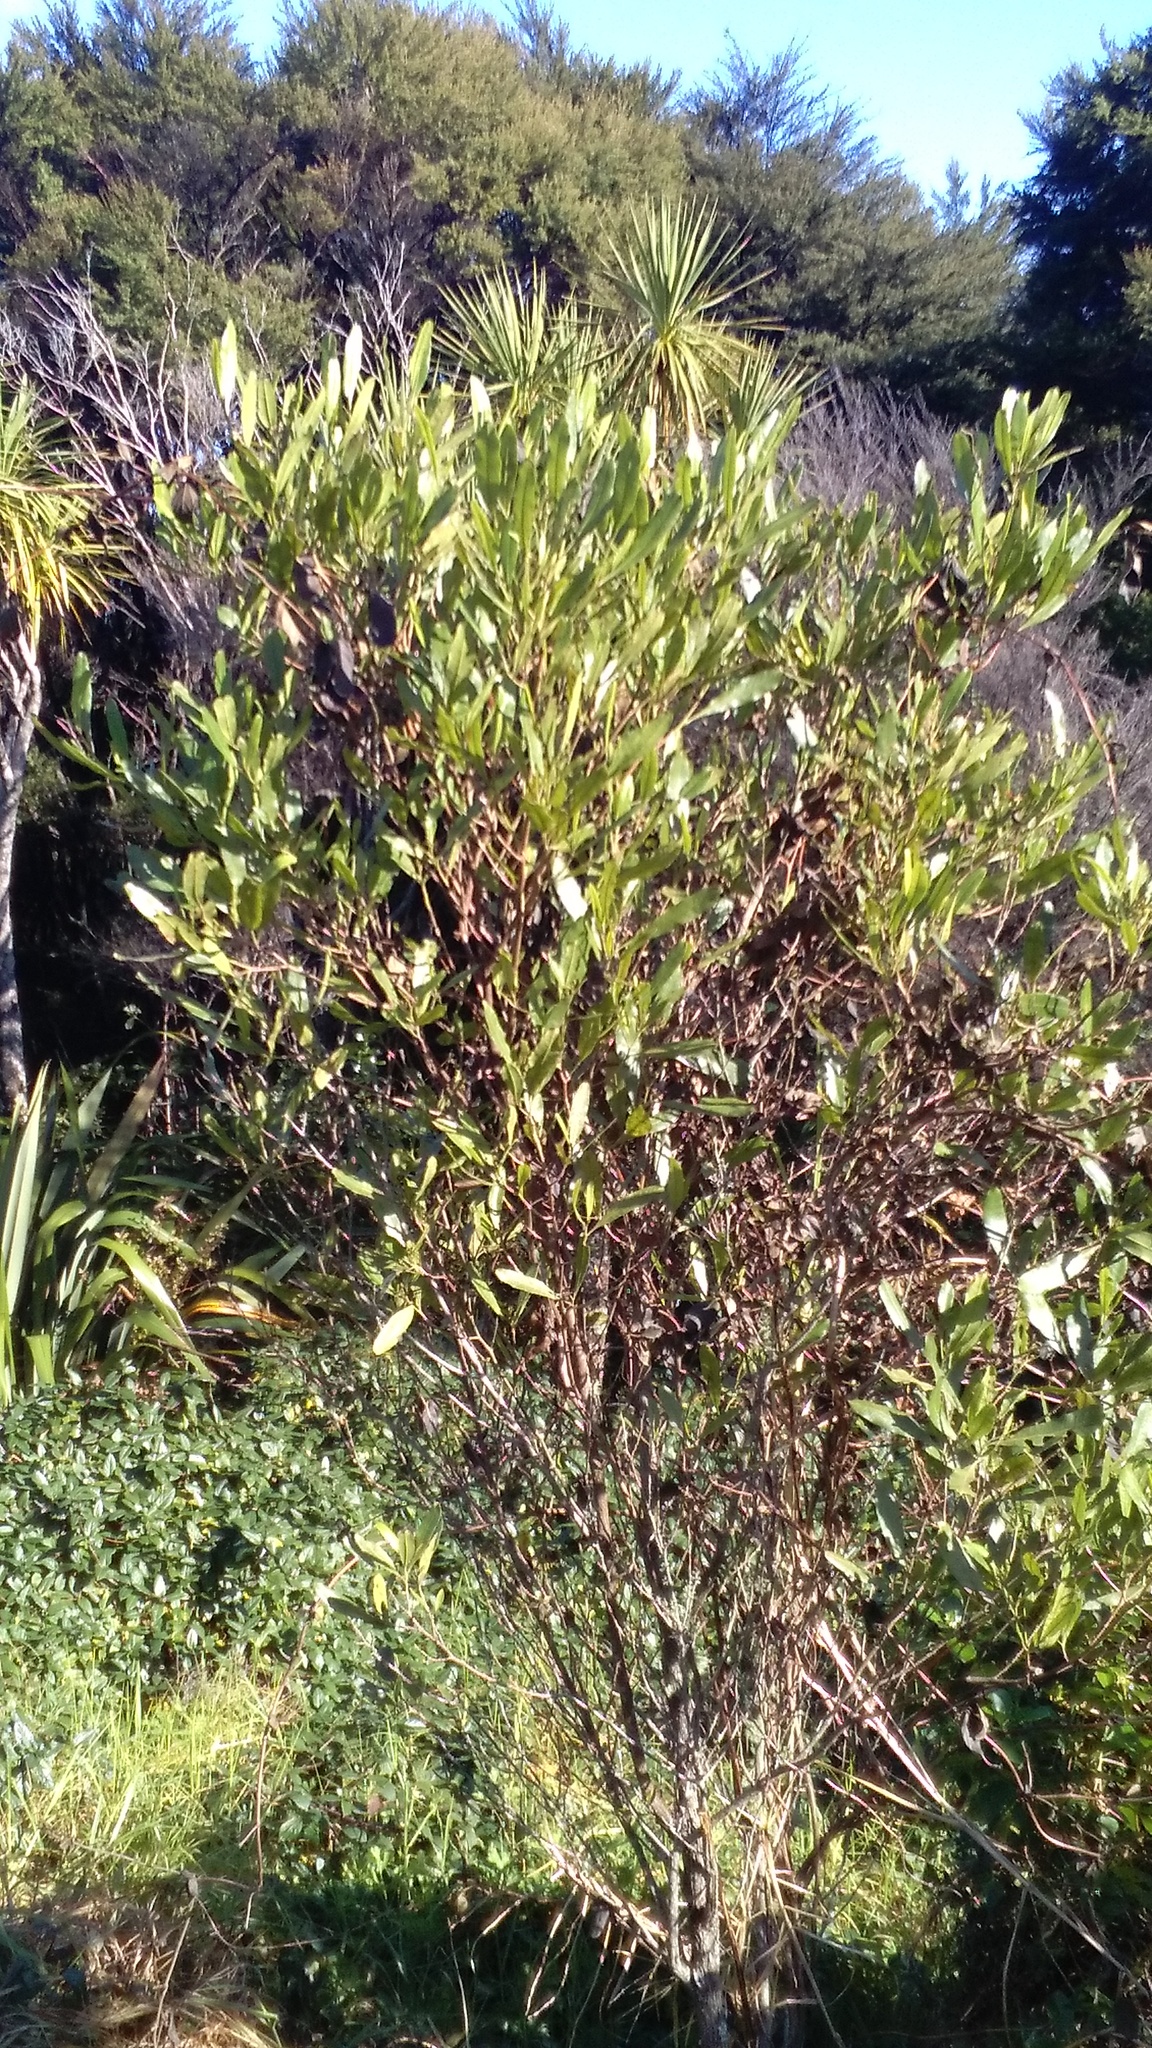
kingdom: Plantae
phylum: Tracheophyta
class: Magnoliopsida
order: Sapindales
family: Sapindaceae
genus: Dodonaea
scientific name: Dodonaea viscosa
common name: Hopbush
